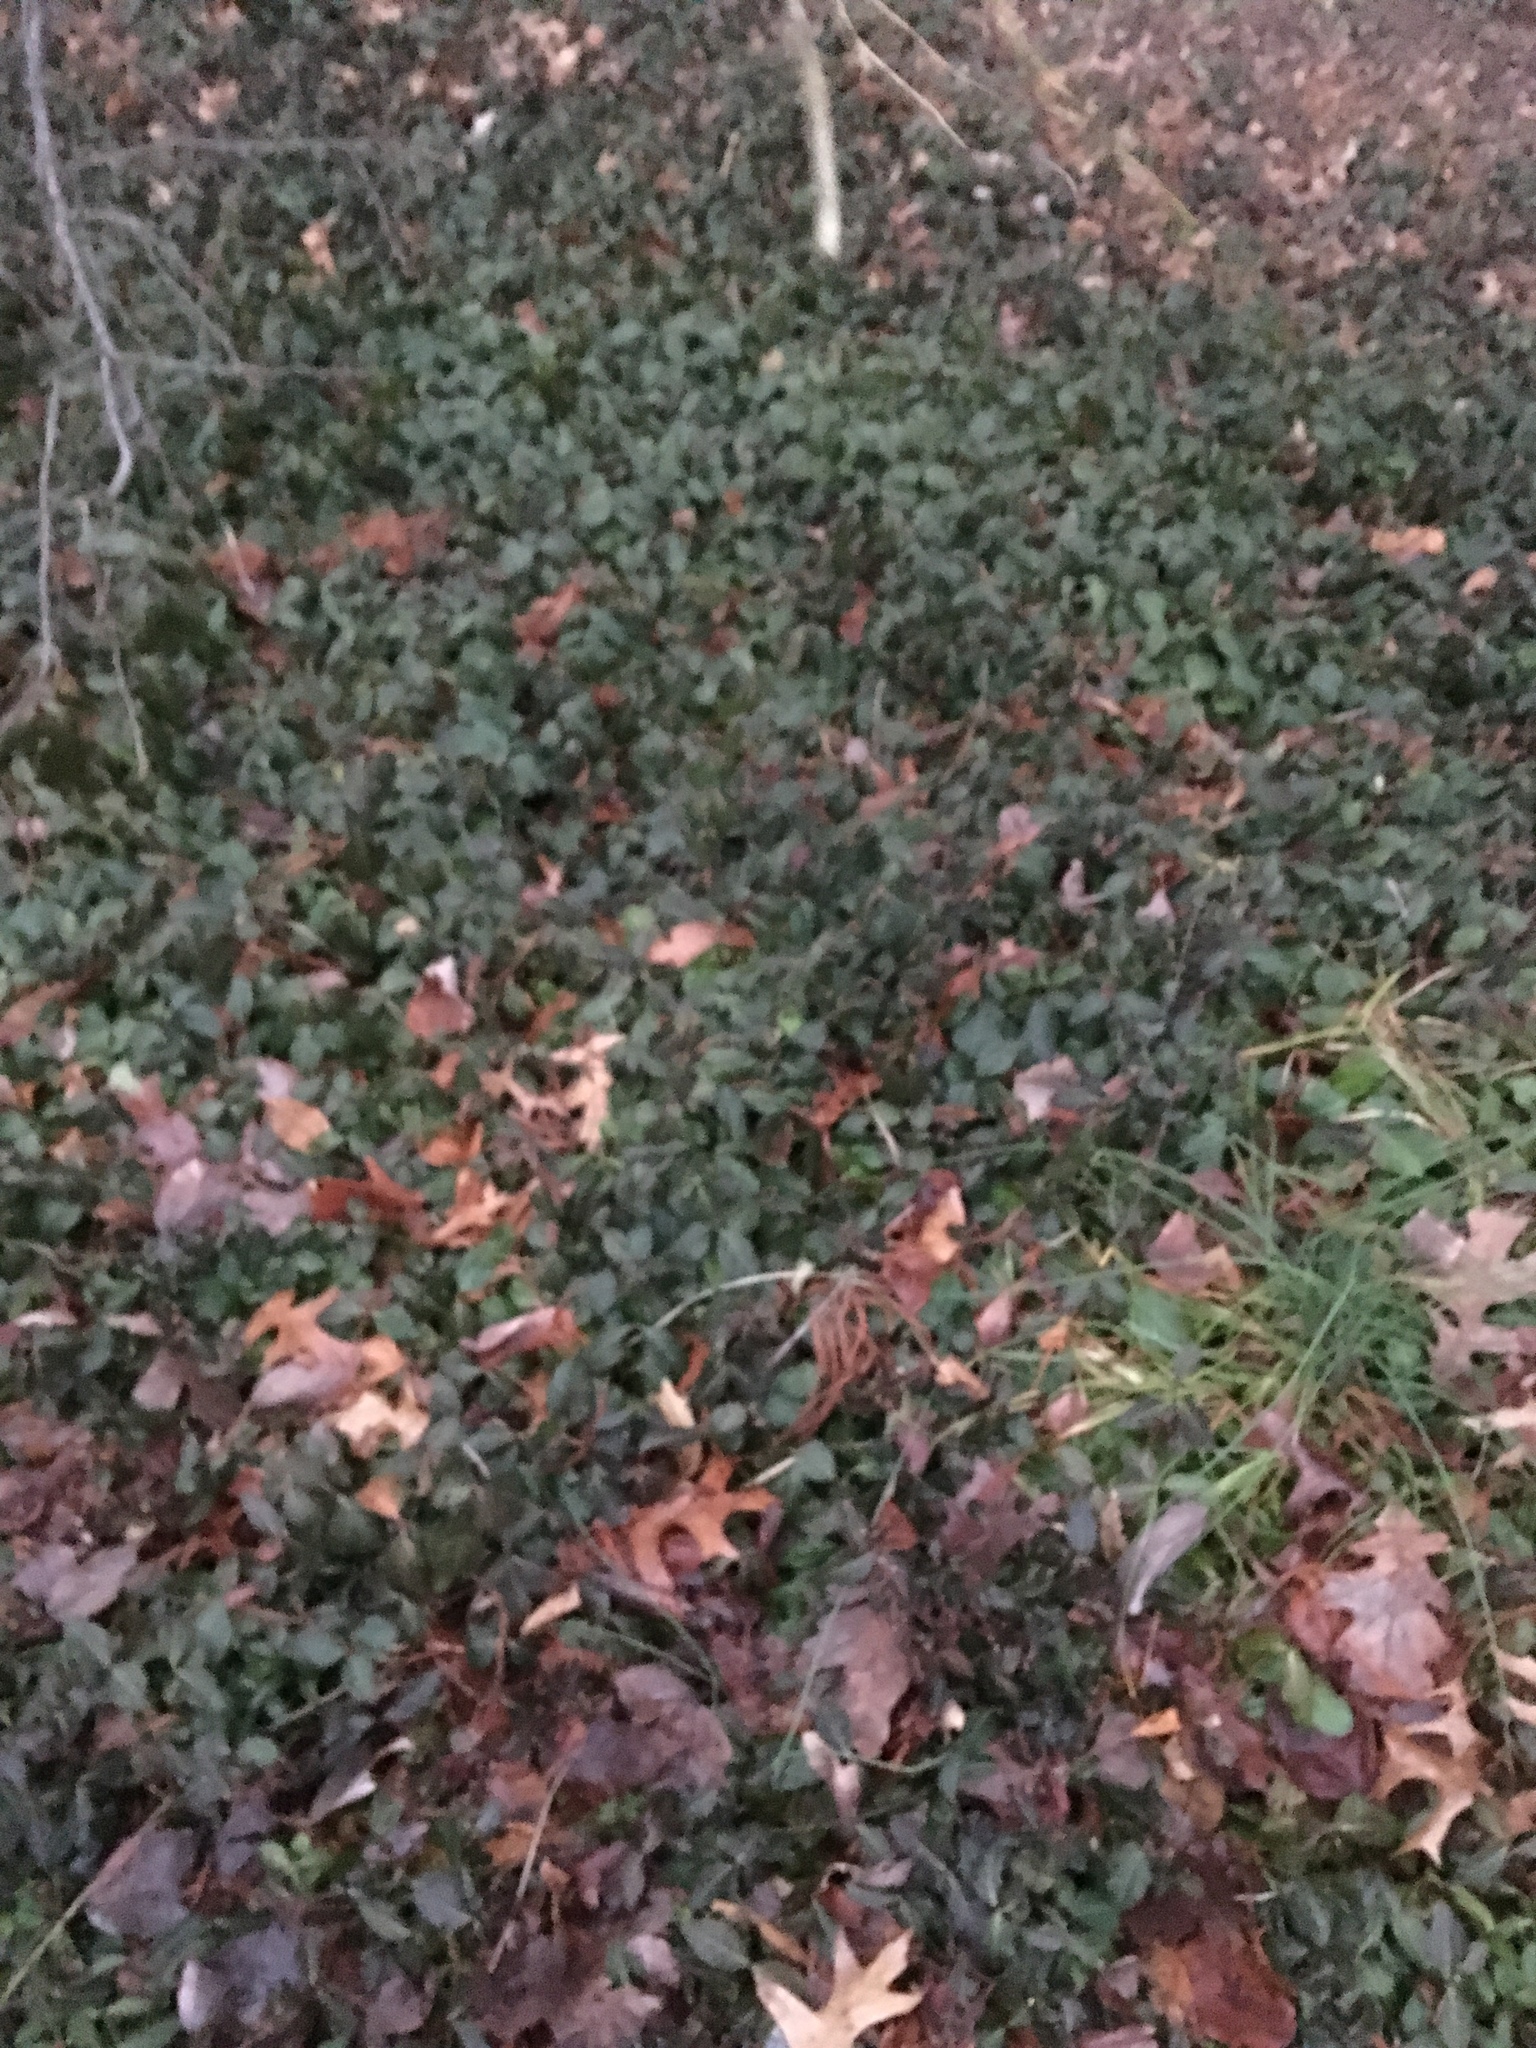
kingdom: Plantae
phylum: Tracheophyta
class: Magnoliopsida
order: Celastrales
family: Celastraceae
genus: Euonymus
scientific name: Euonymus fortunei
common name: Climbing euonymus
